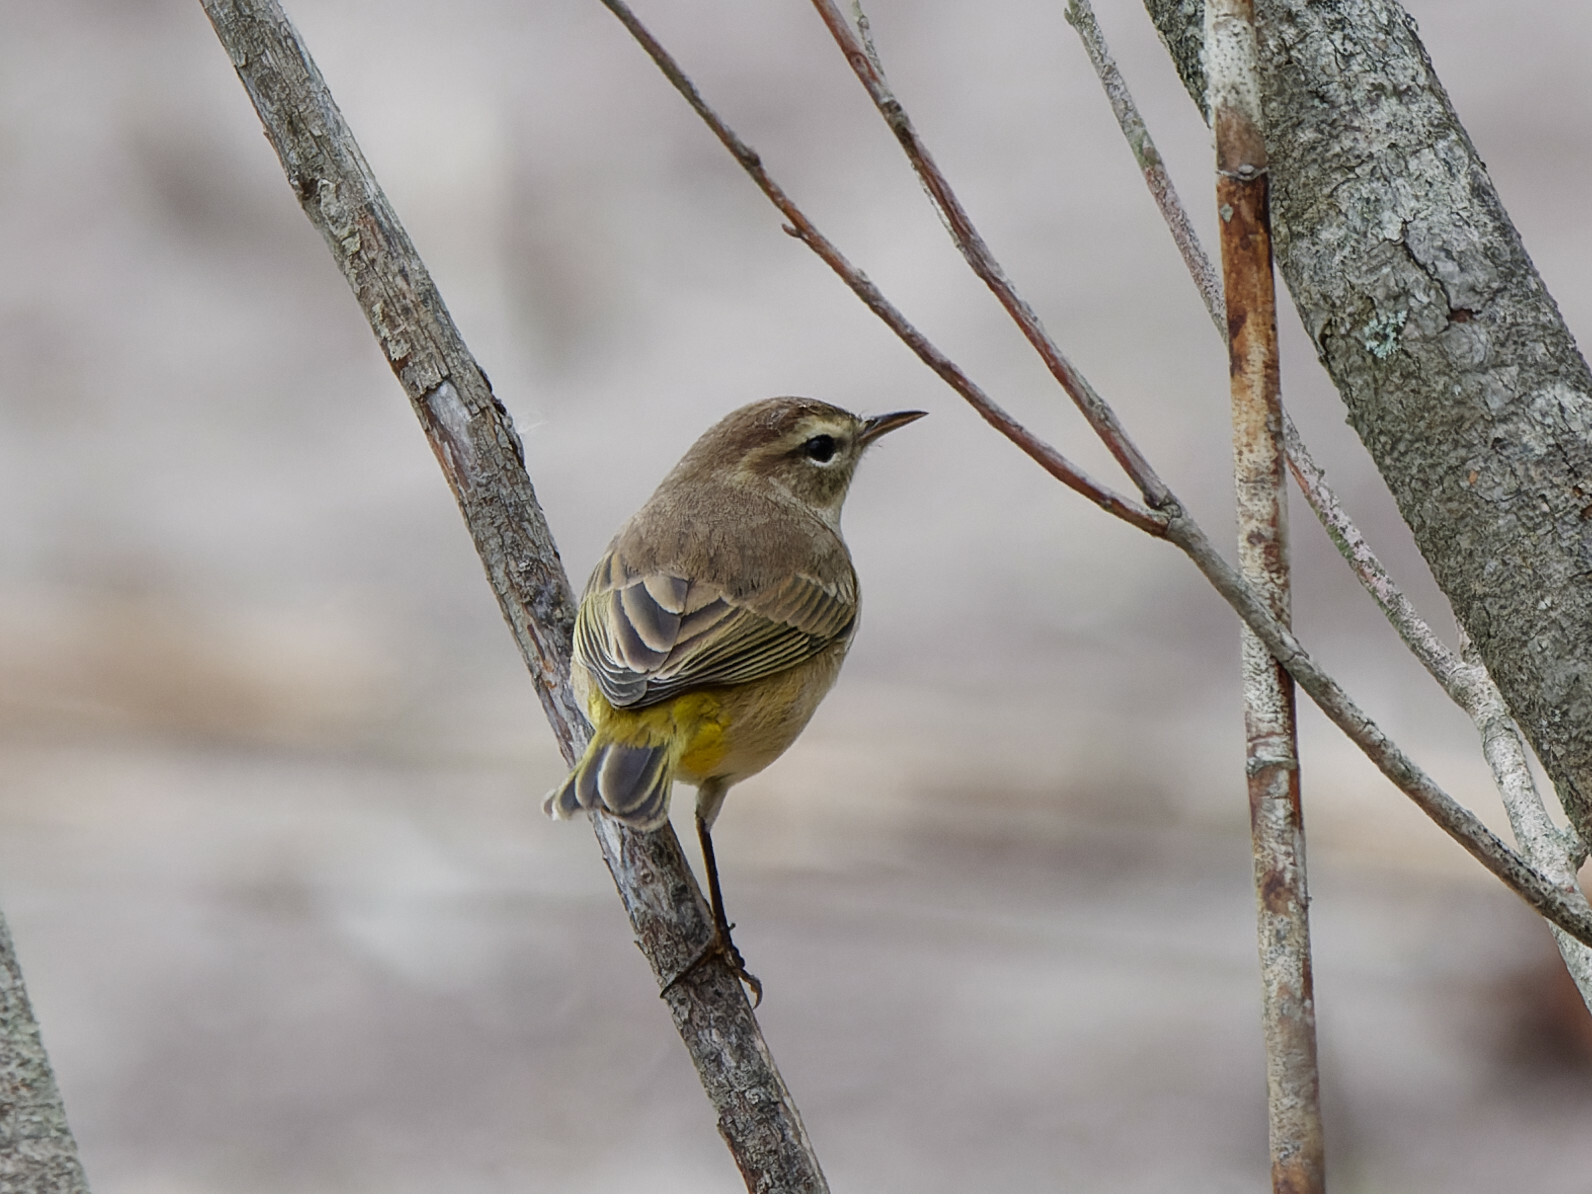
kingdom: Animalia
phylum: Chordata
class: Aves
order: Passeriformes
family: Parulidae
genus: Setophaga
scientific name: Setophaga palmarum
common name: Palm warbler
